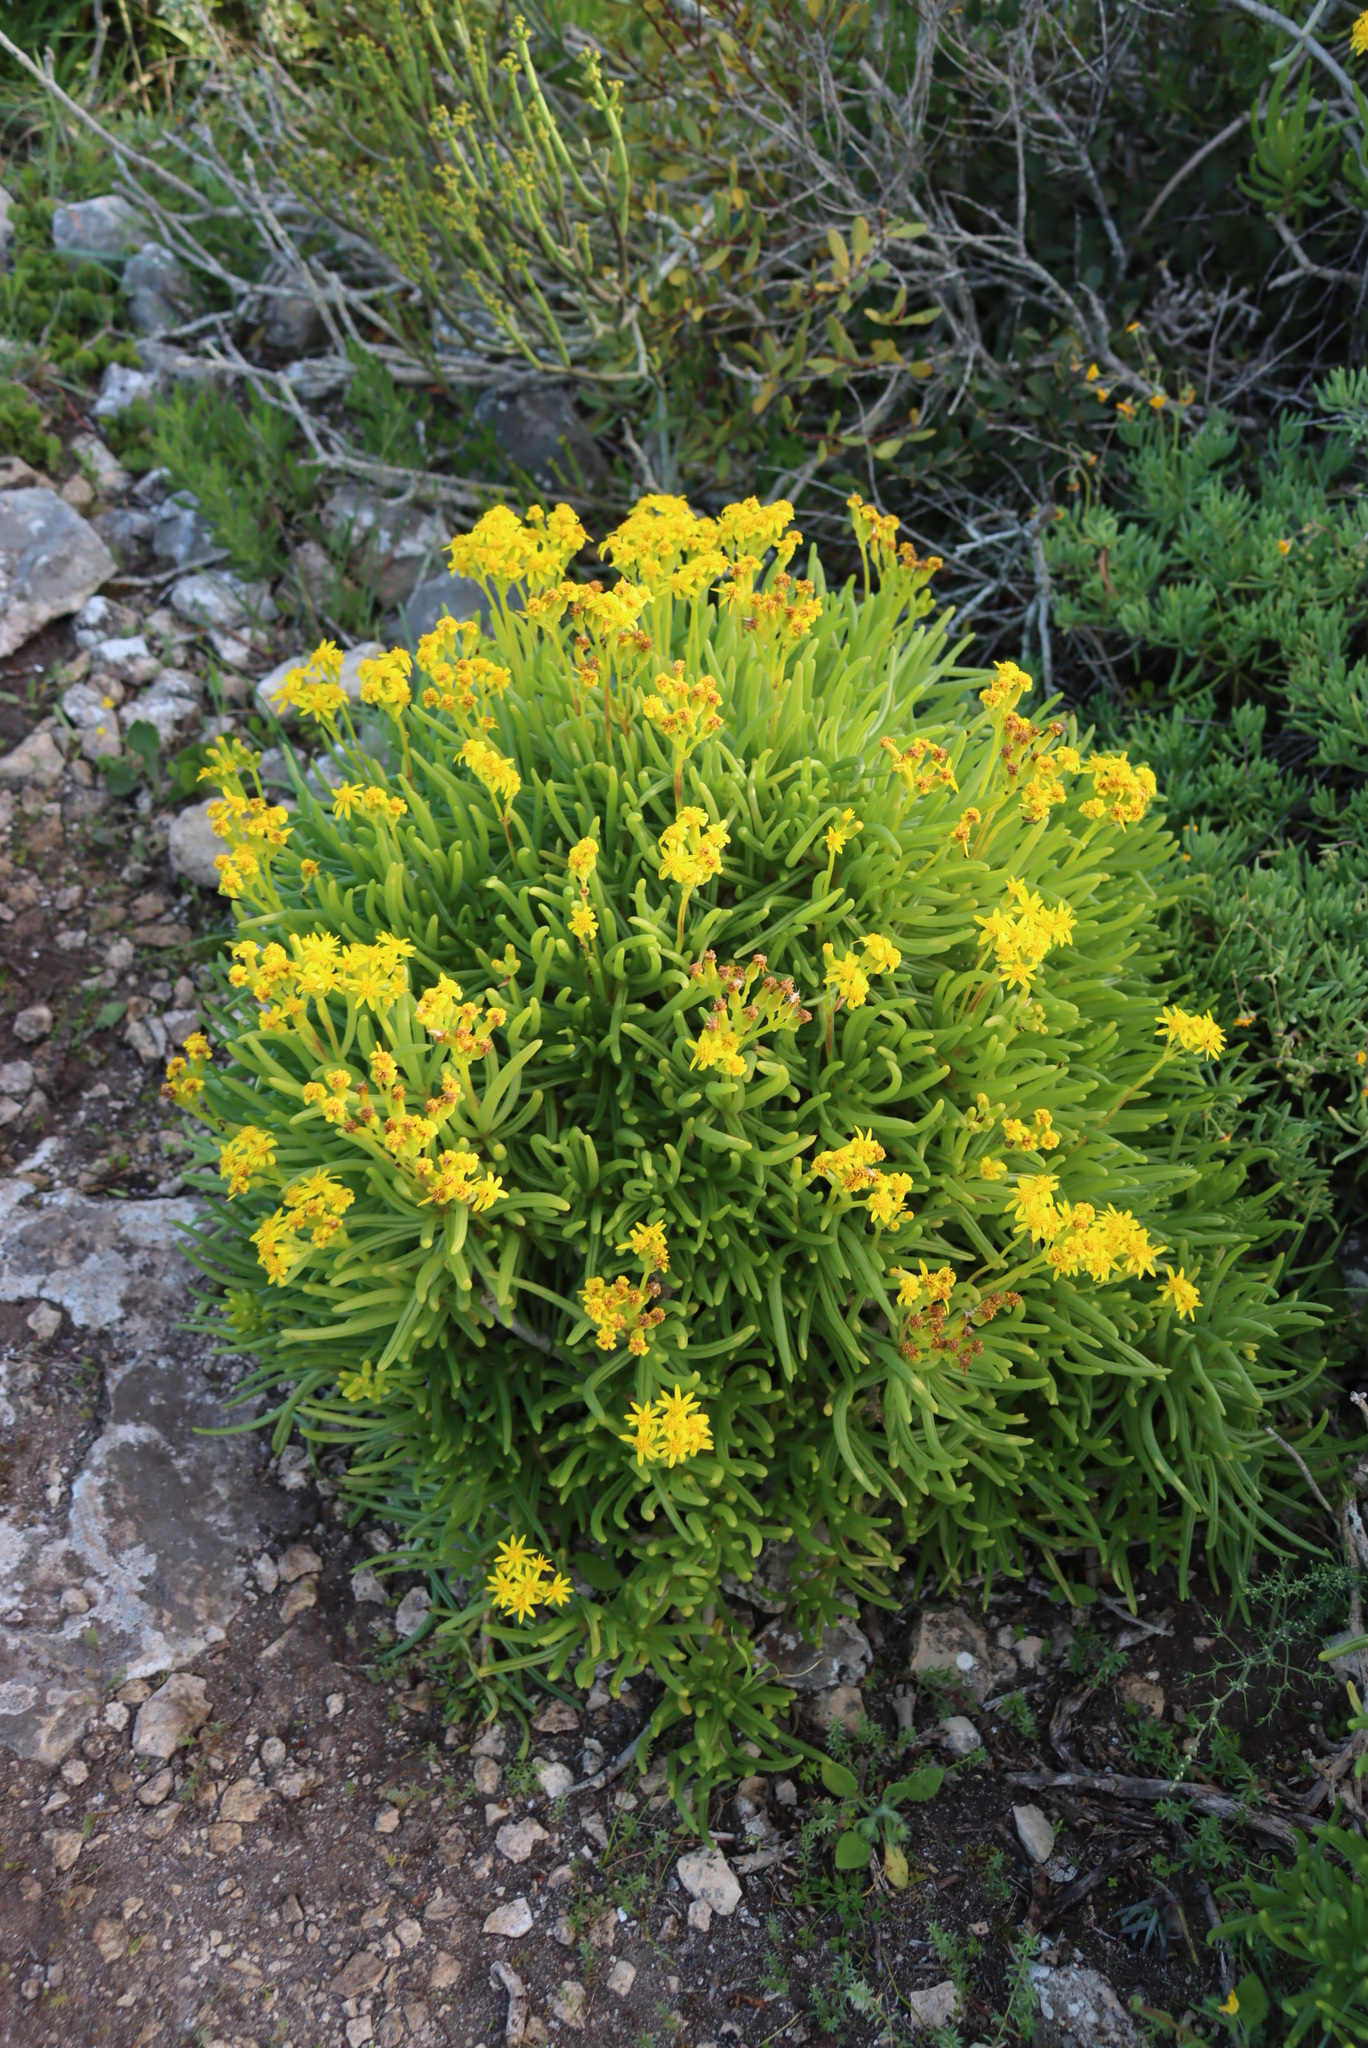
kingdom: Plantae
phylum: Tracheophyta
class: Magnoliopsida
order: Asterales
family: Asteraceae
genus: Curio
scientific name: Curio corymbifer
